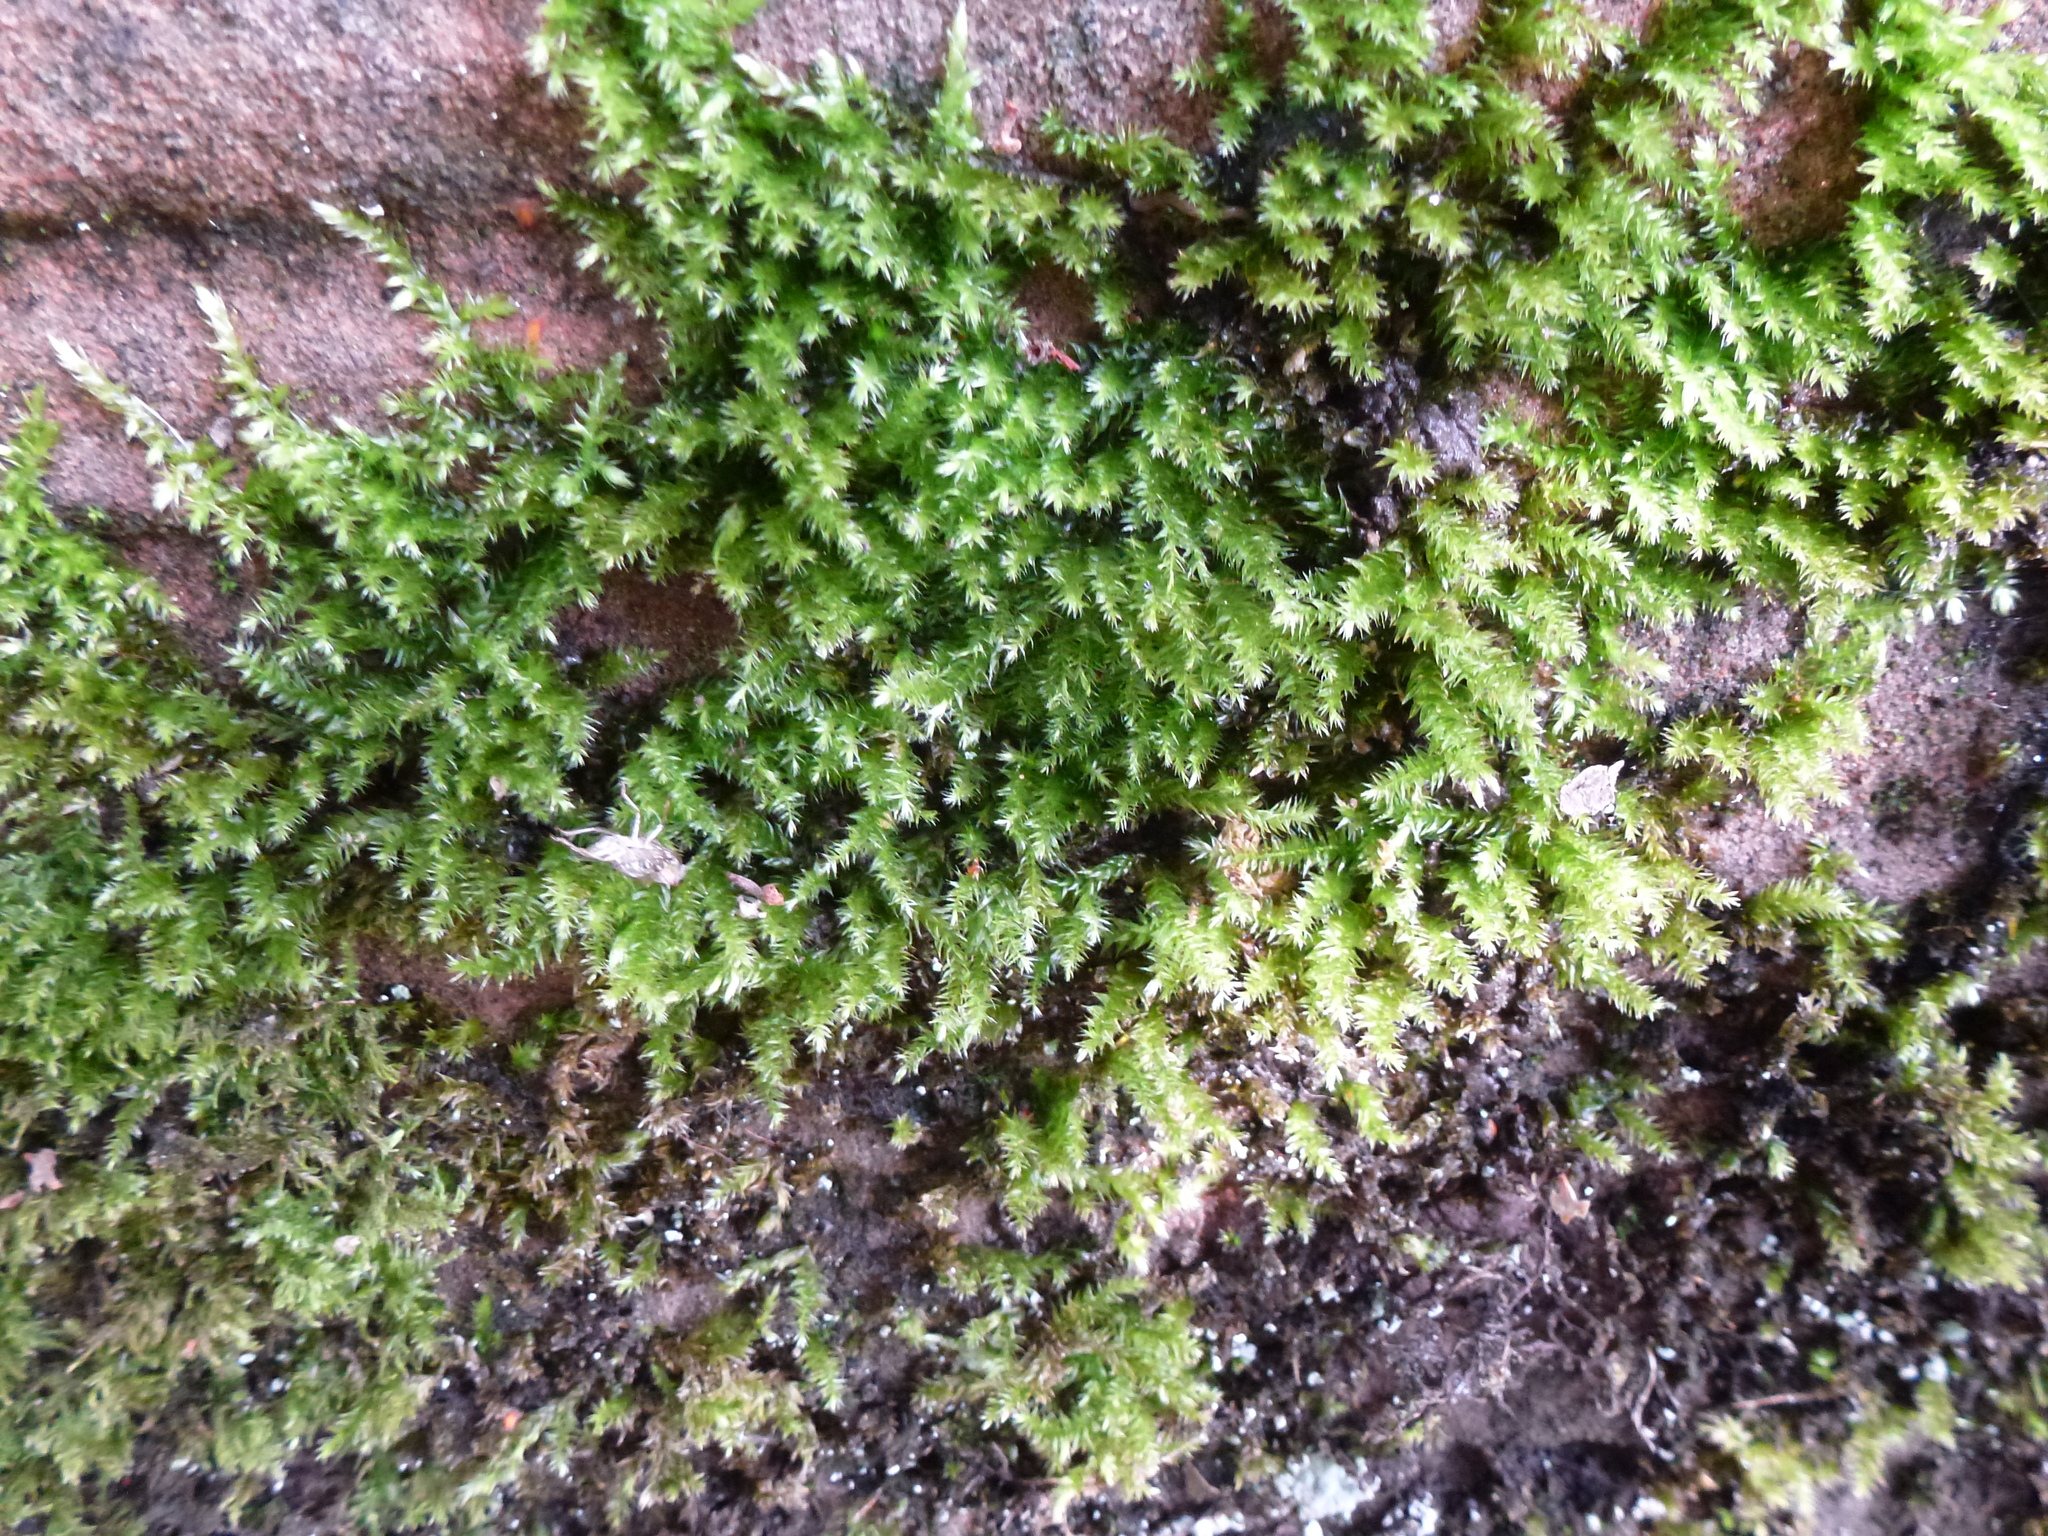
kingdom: Plantae
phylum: Bryophyta
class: Bryopsida
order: Hypnales
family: Brachytheciaceae
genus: Homalothecium
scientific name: Homalothecium sericeum
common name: Silky wall feather-moss
